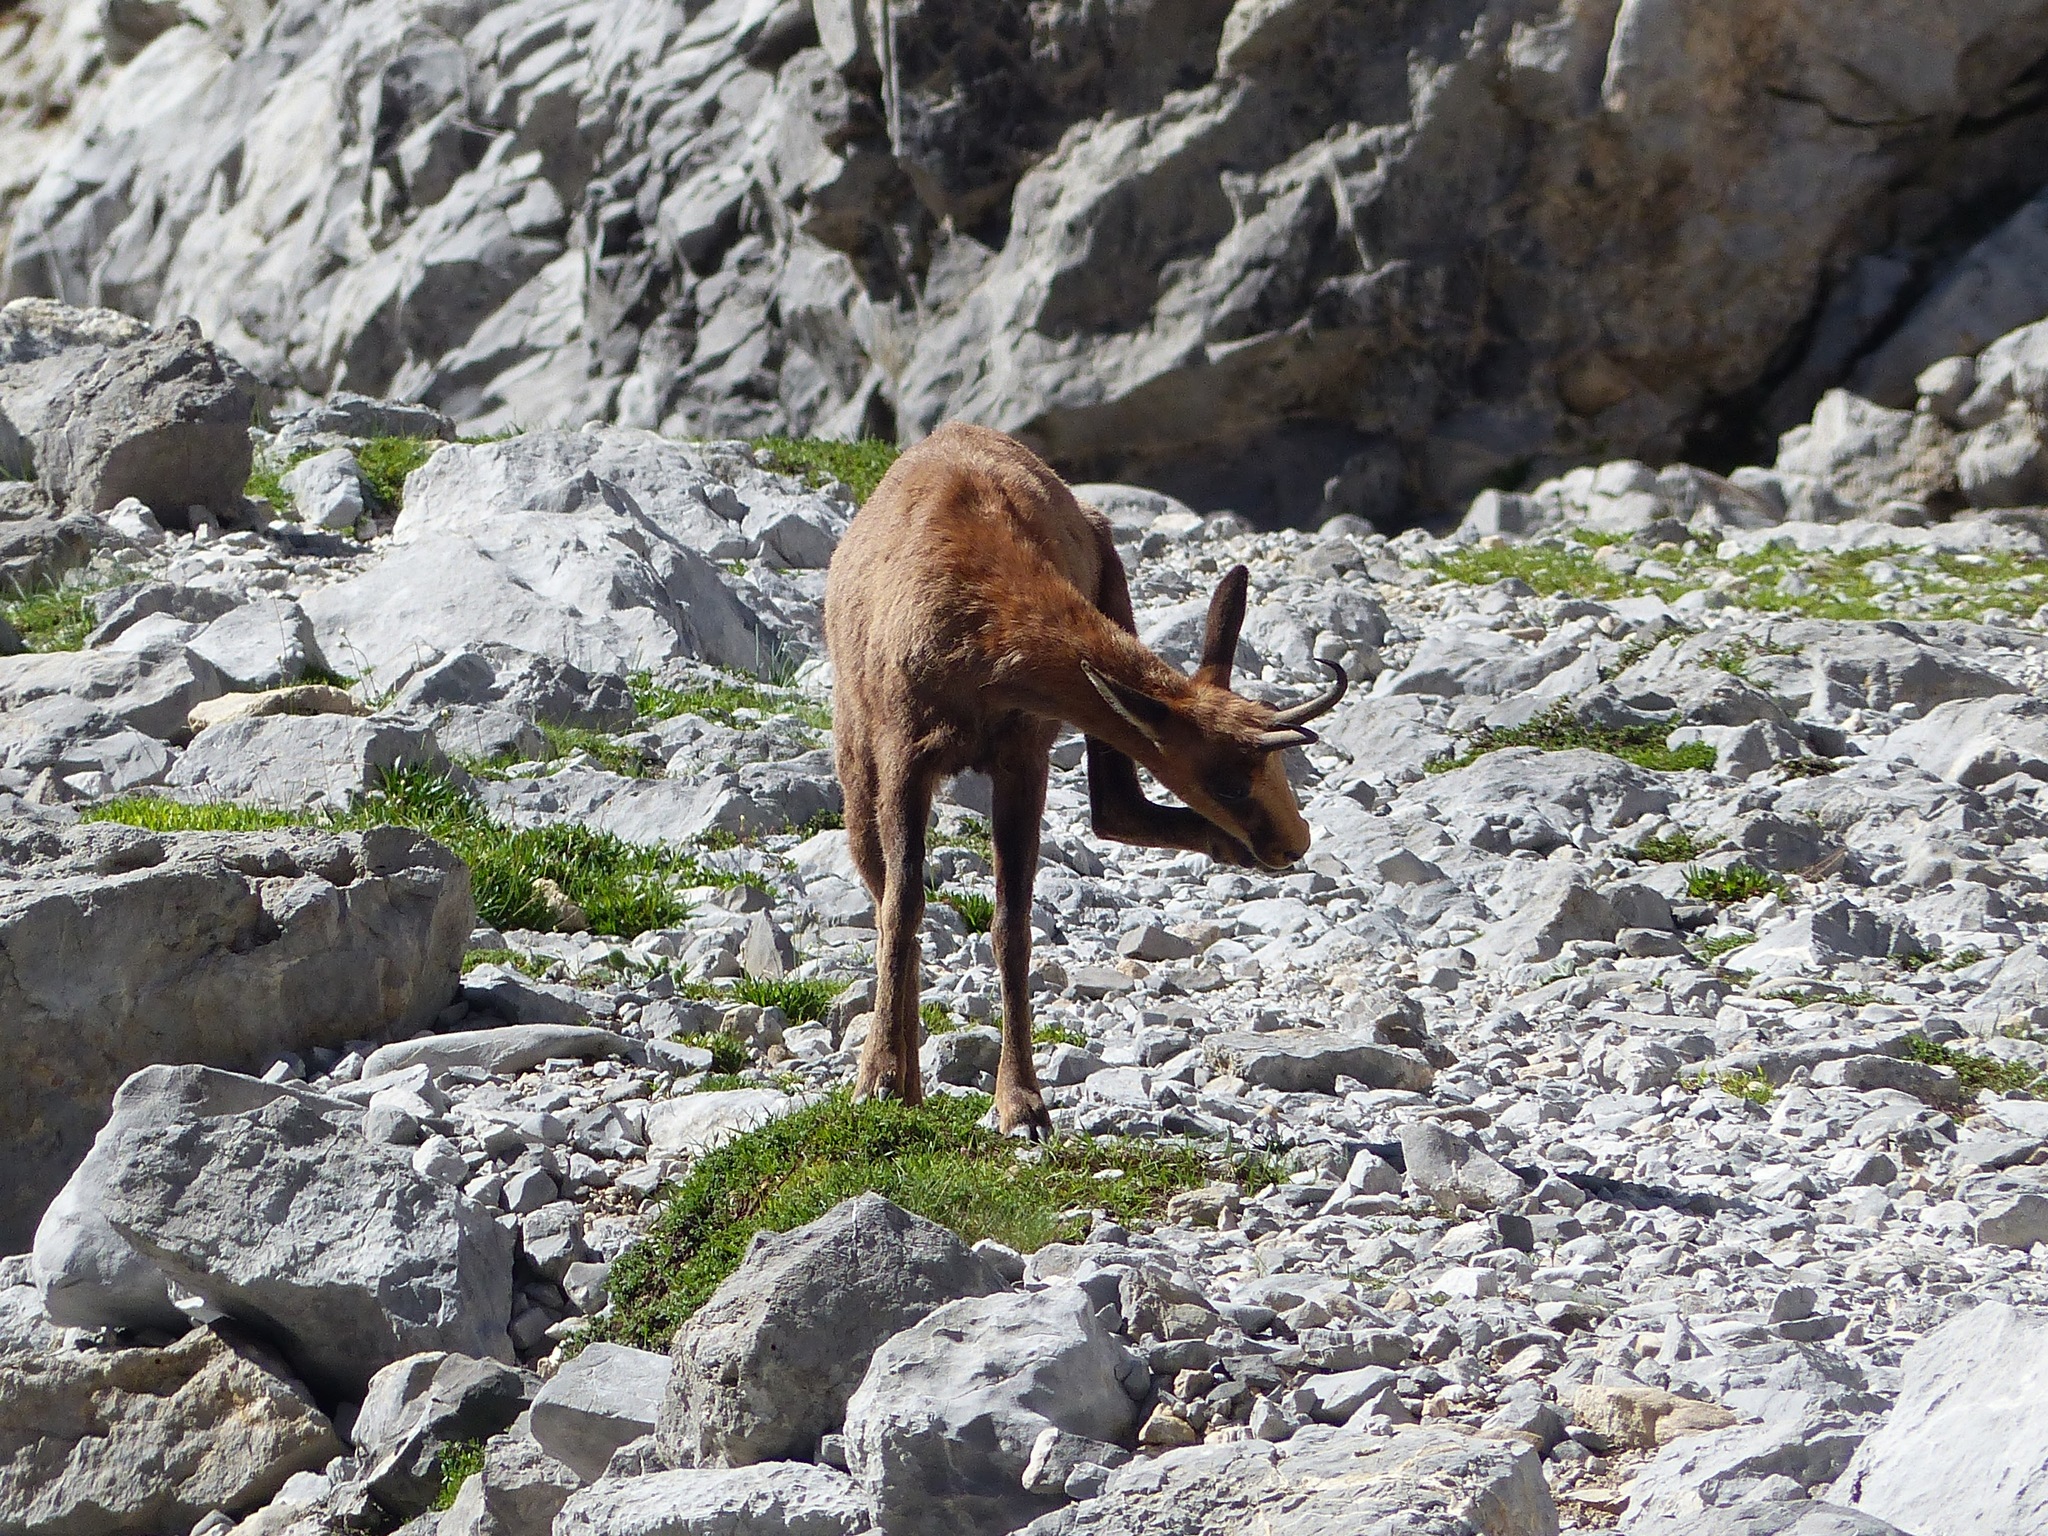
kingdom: Animalia
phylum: Chordata
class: Mammalia
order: Artiodactyla
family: Bovidae
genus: Rupicapra
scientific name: Rupicapra pyrenaica
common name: Pyrenean chamois
